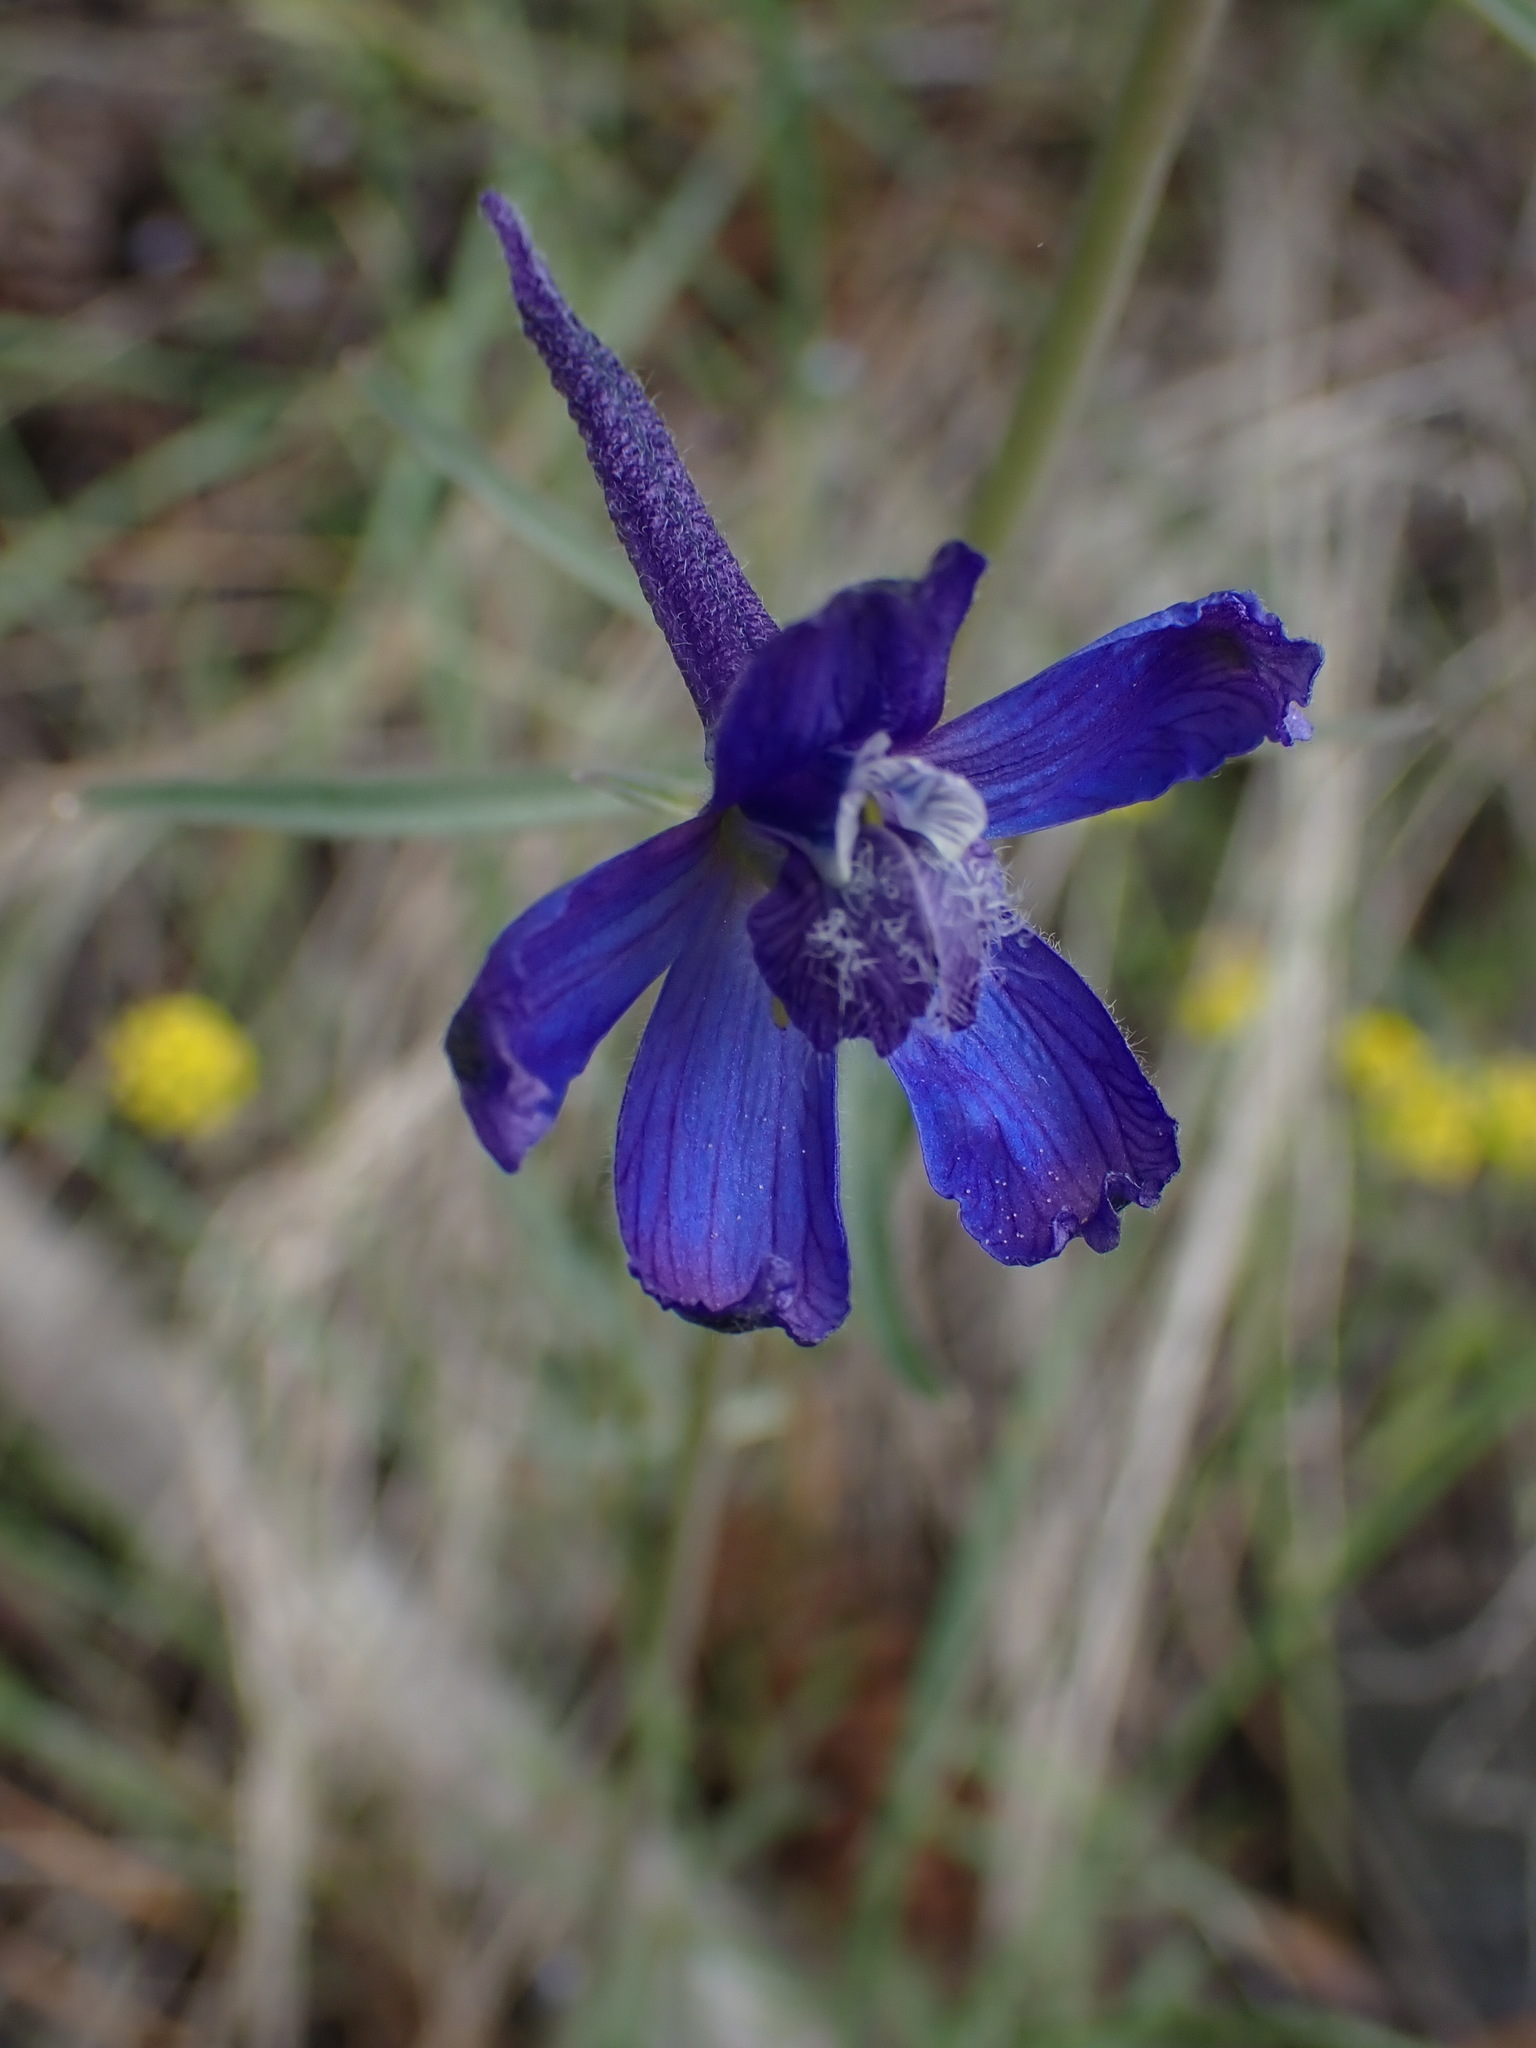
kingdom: Plantae
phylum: Tracheophyta
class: Magnoliopsida
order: Ranunculales
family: Ranunculaceae
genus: Delphinium
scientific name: Delphinium nuttallianum
